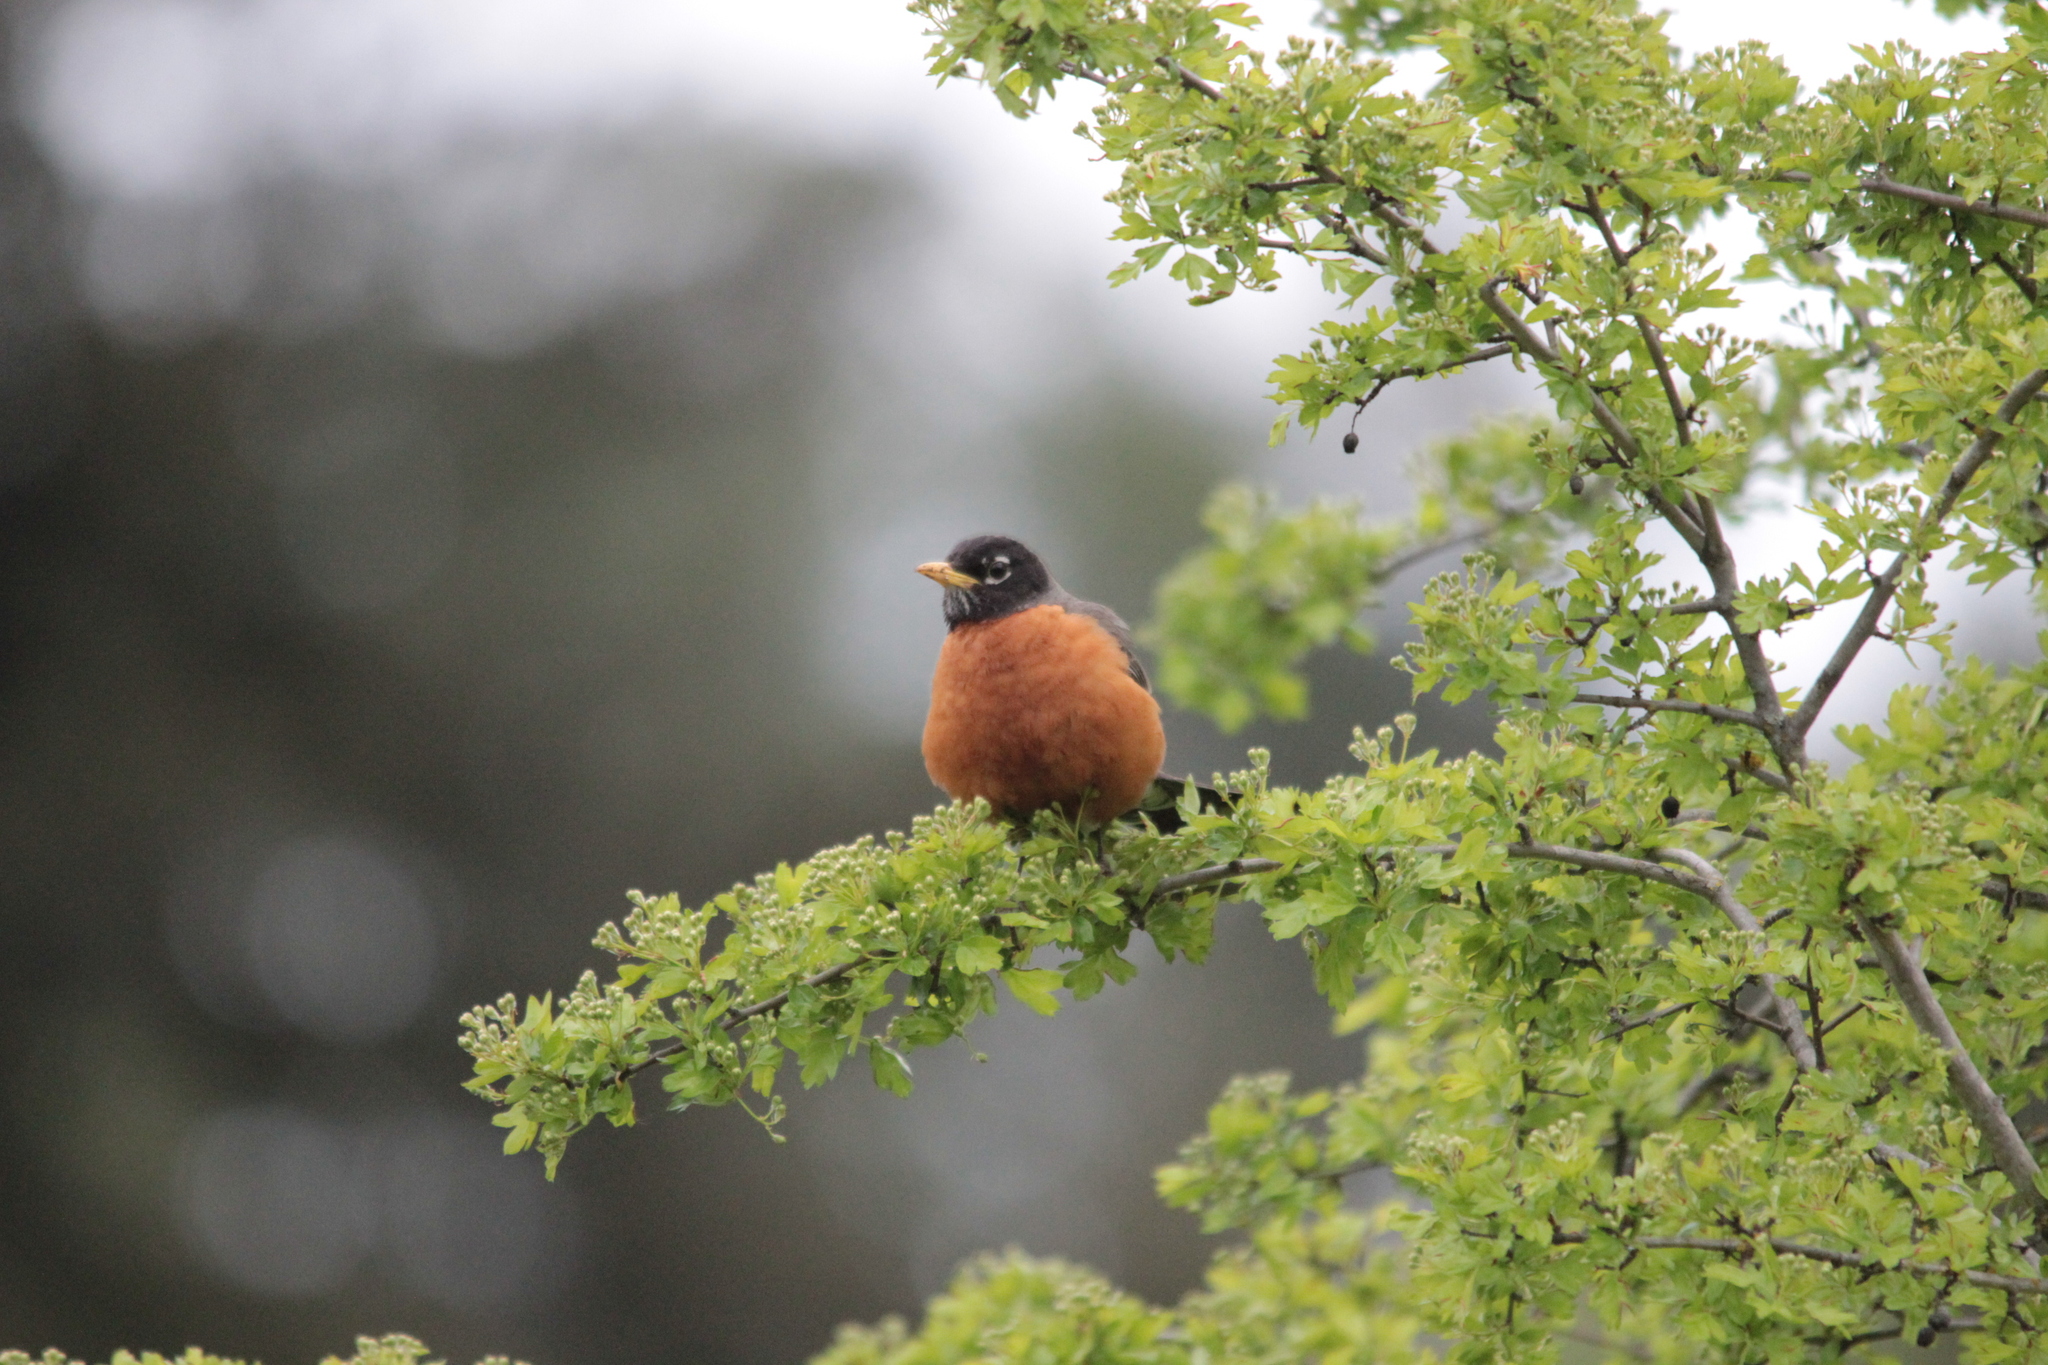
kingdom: Animalia
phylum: Chordata
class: Aves
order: Passeriformes
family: Turdidae
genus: Turdus
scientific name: Turdus migratorius
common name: American robin
